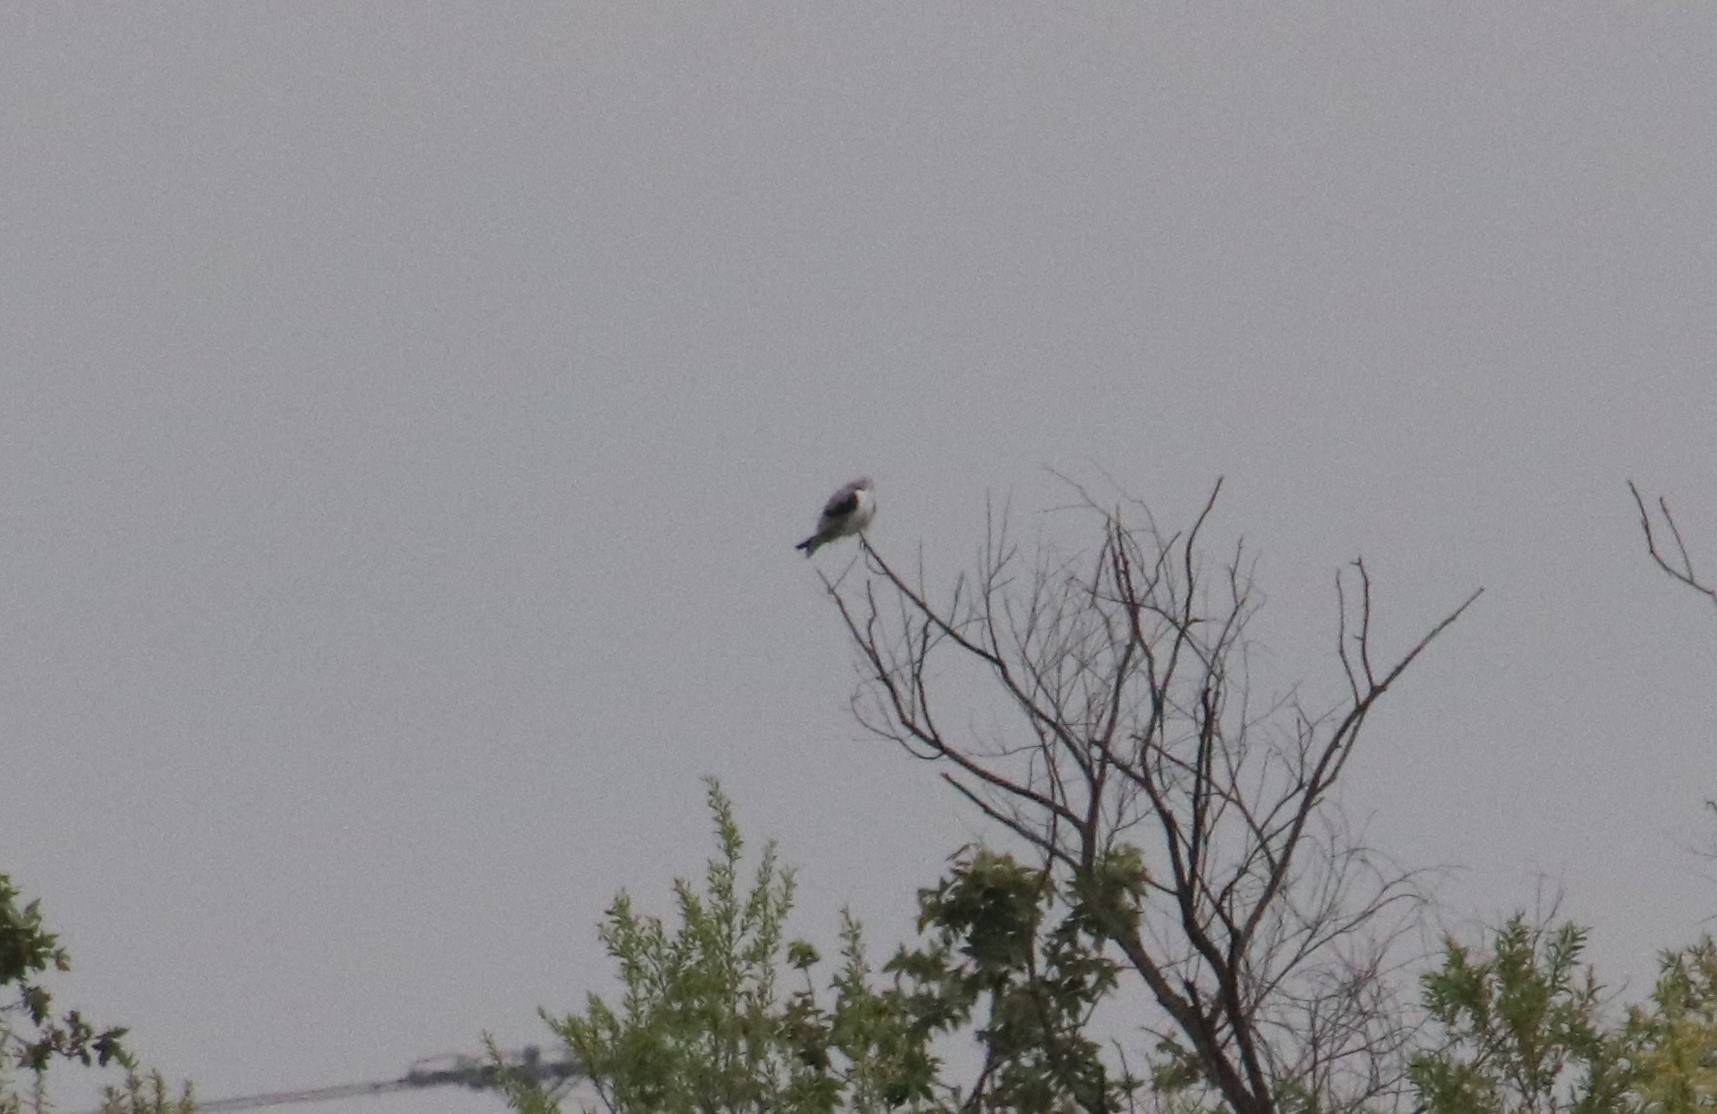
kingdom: Animalia
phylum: Chordata
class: Aves
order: Accipitriformes
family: Accipitridae
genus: Elanus
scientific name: Elanus leucurus
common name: White-tailed kite
